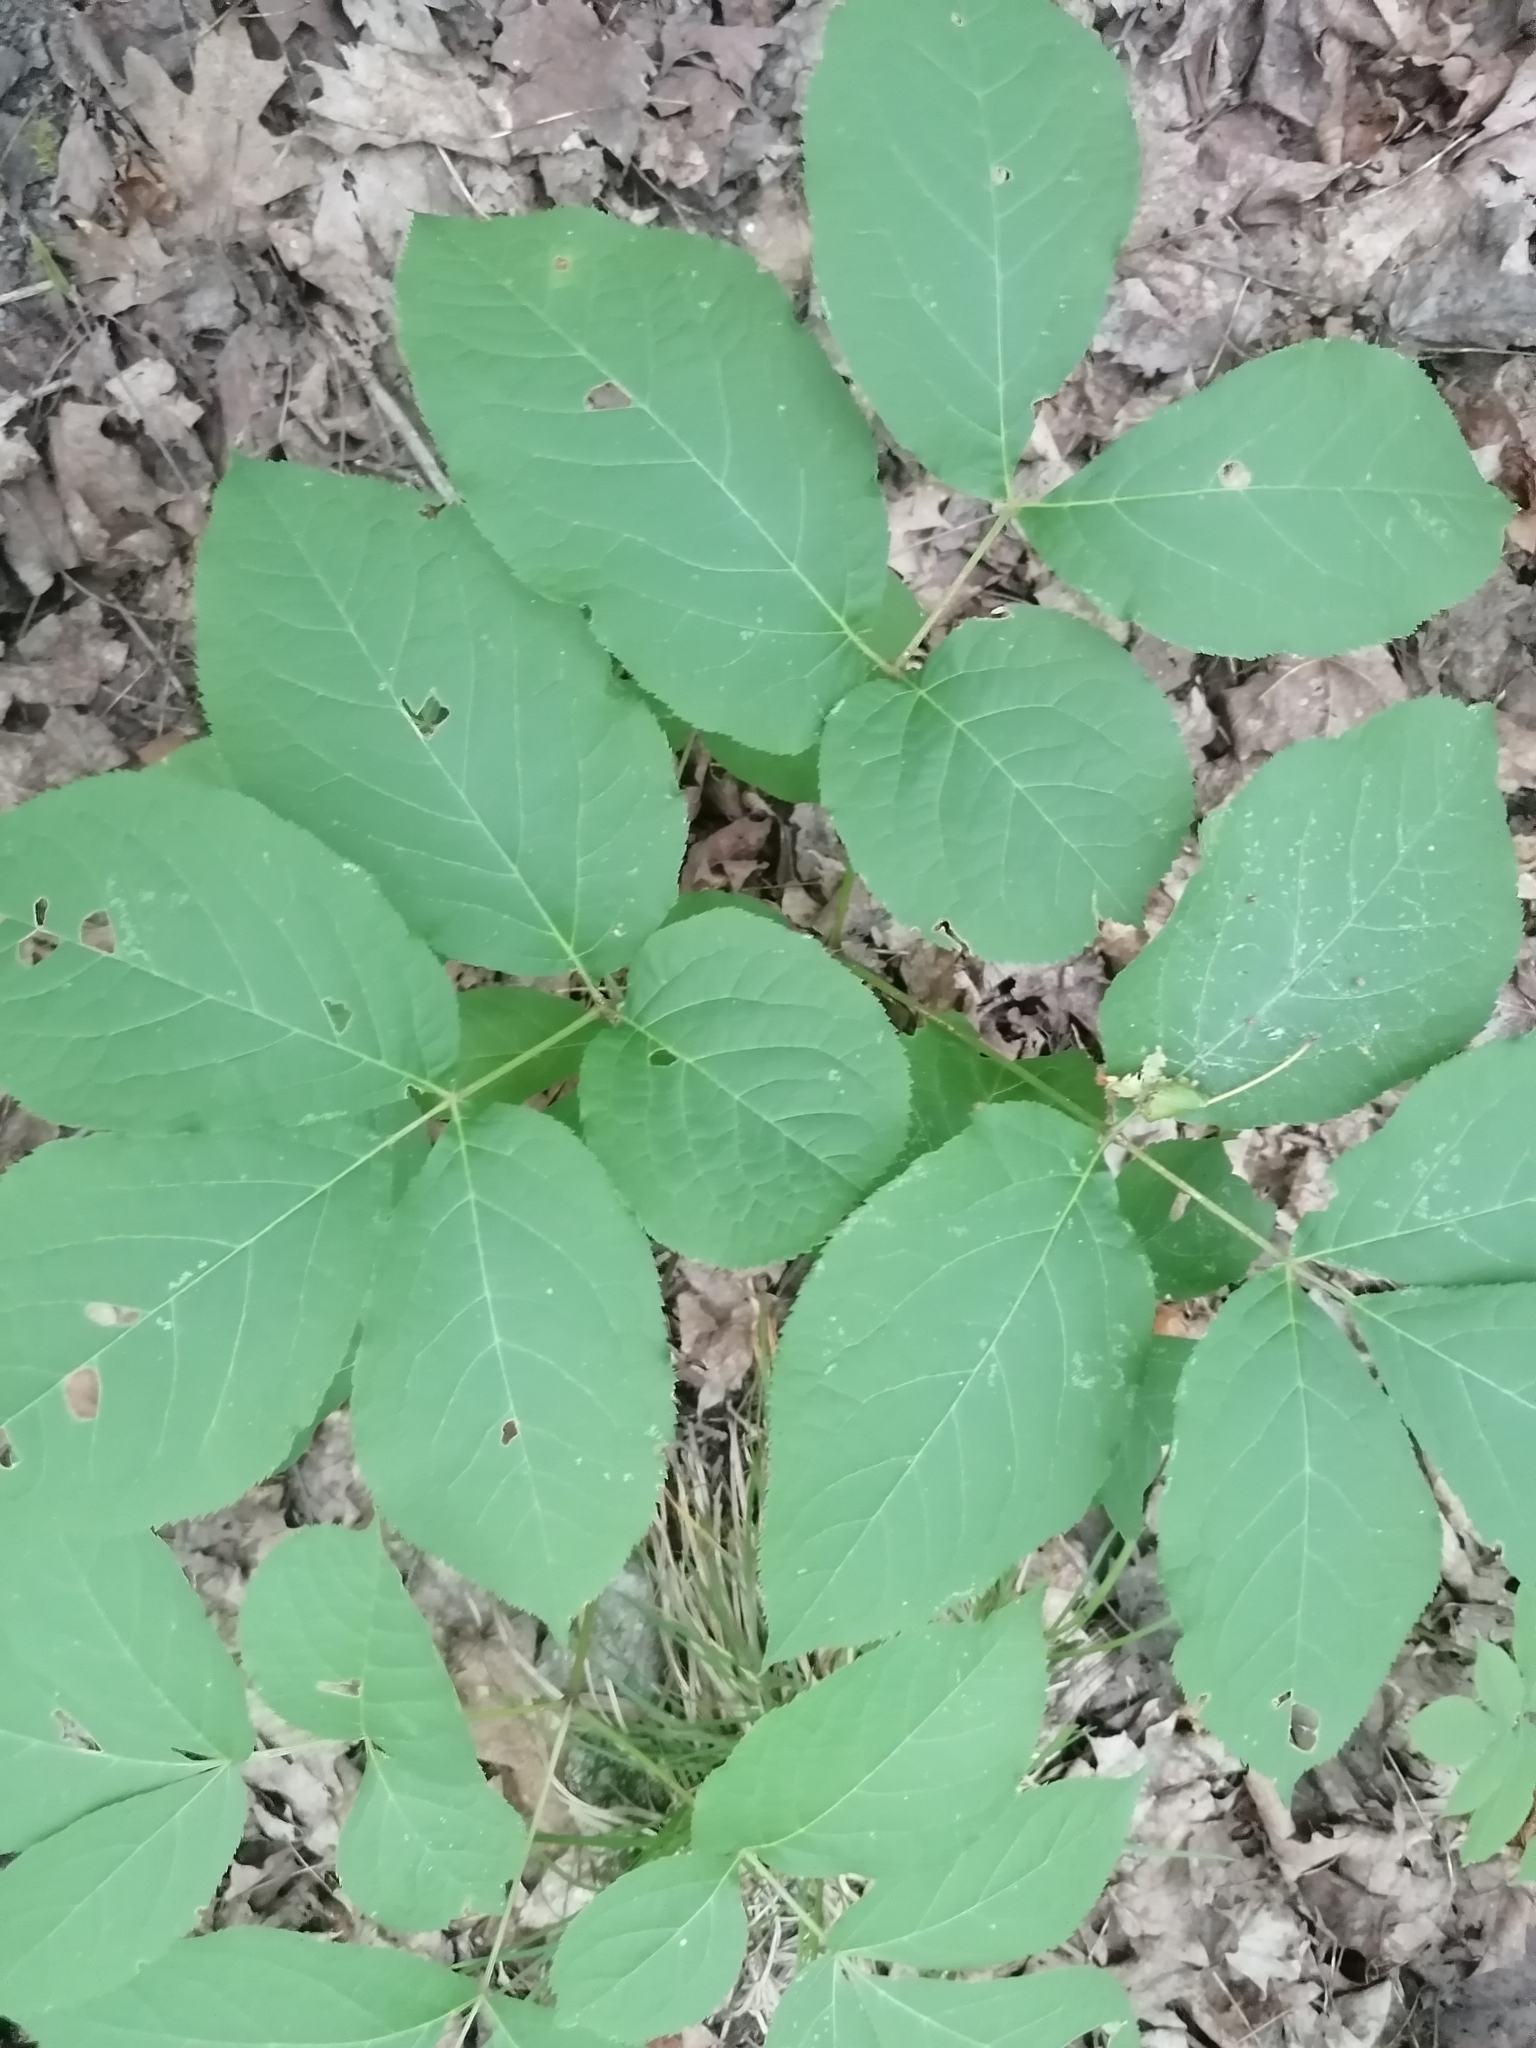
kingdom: Plantae
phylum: Tracheophyta
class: Magnoliopsida
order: Apiales
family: Araliaceae
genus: Aralia
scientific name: Aralia nudicaulis
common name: Wild sarsaparilla
